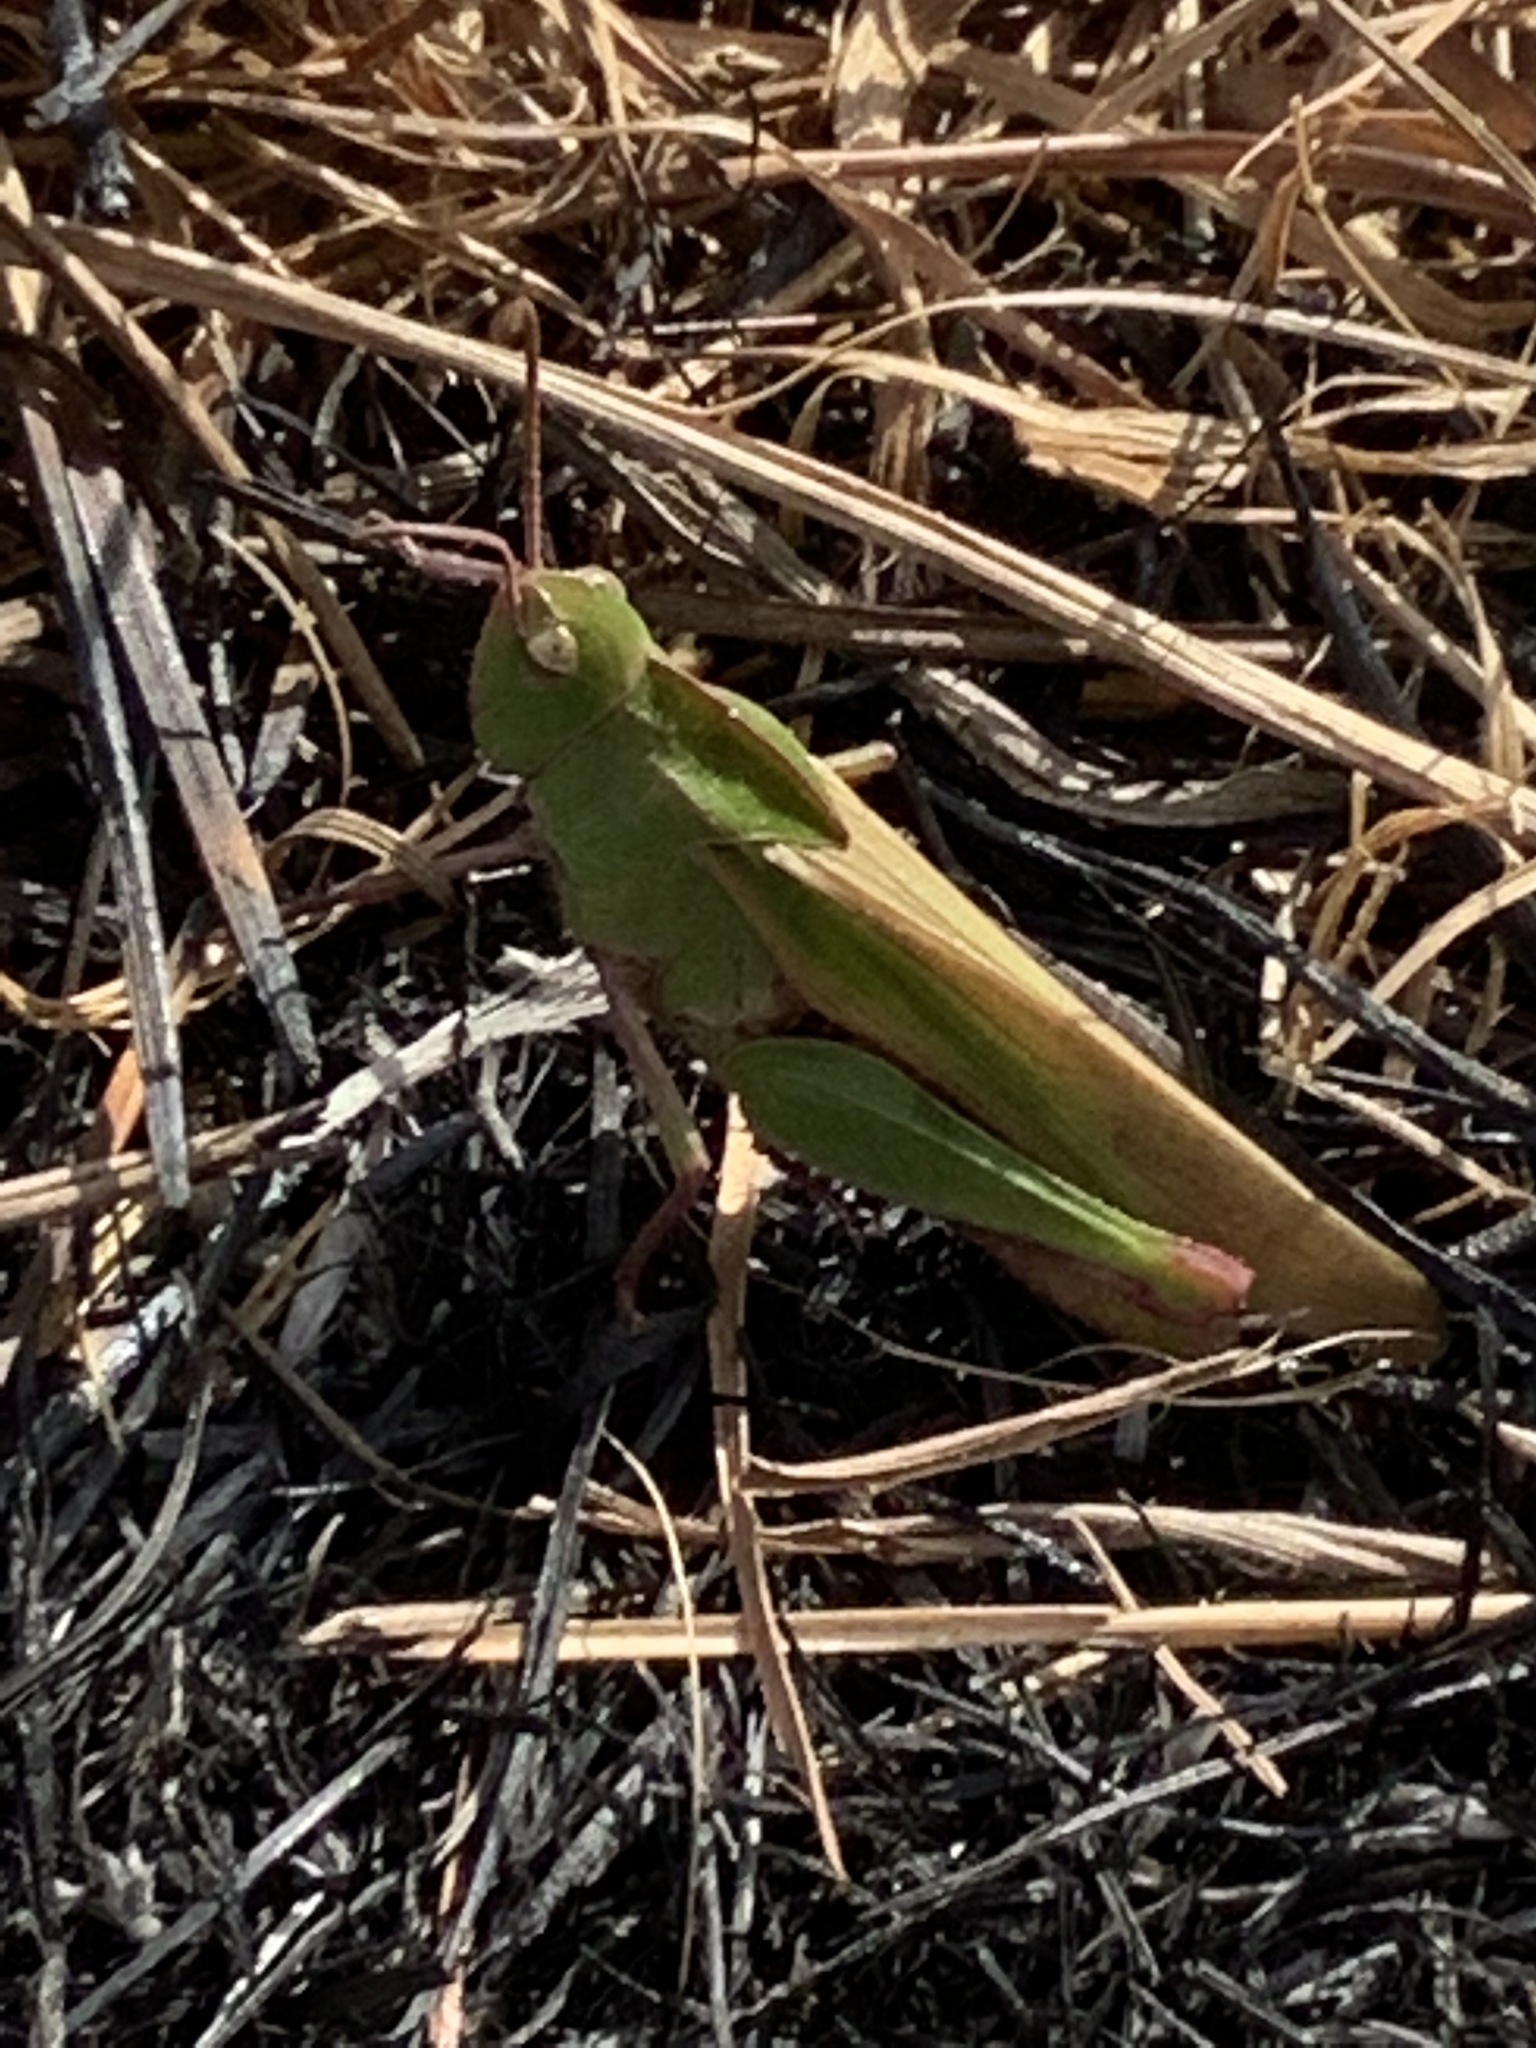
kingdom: Animalia
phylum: Arthropoda
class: Insecta
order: Orthoptera
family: Acrididae
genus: Chortophaga
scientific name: Chortophaga viridifasciata
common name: Green-striped grasshopper
